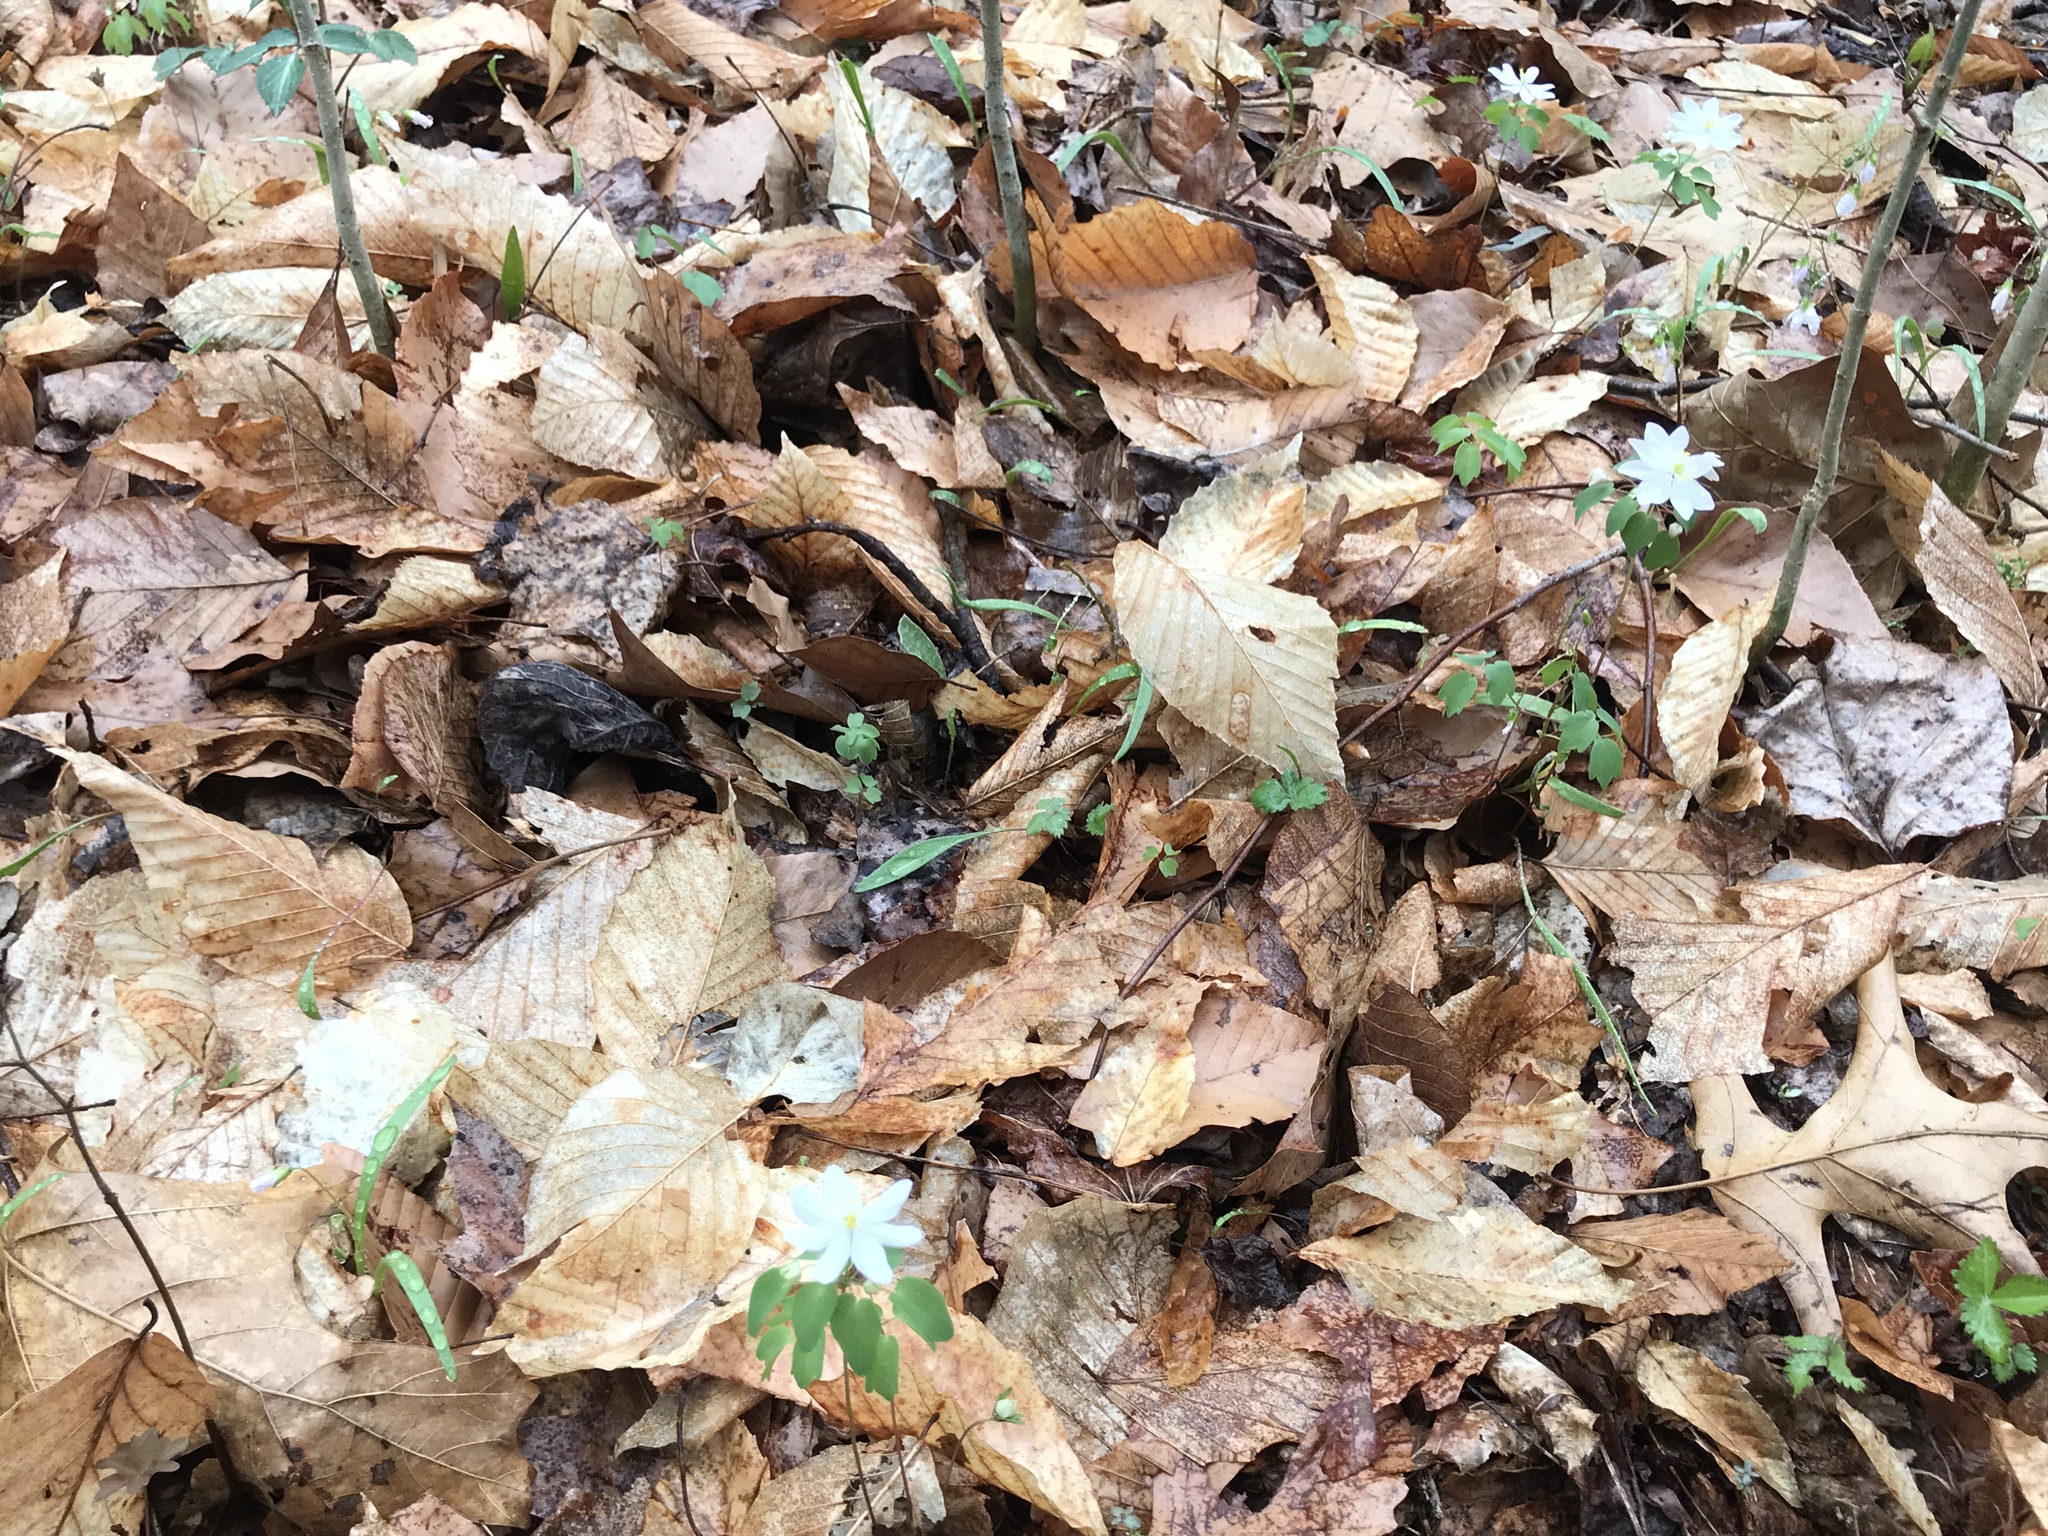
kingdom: Plantae
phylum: Tracheophyta
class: Magnoliopsida
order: Ranunculales
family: Ranunculaceae
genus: Thalictrum
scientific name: Thalictrum thalictroides
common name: Rue-anemone
